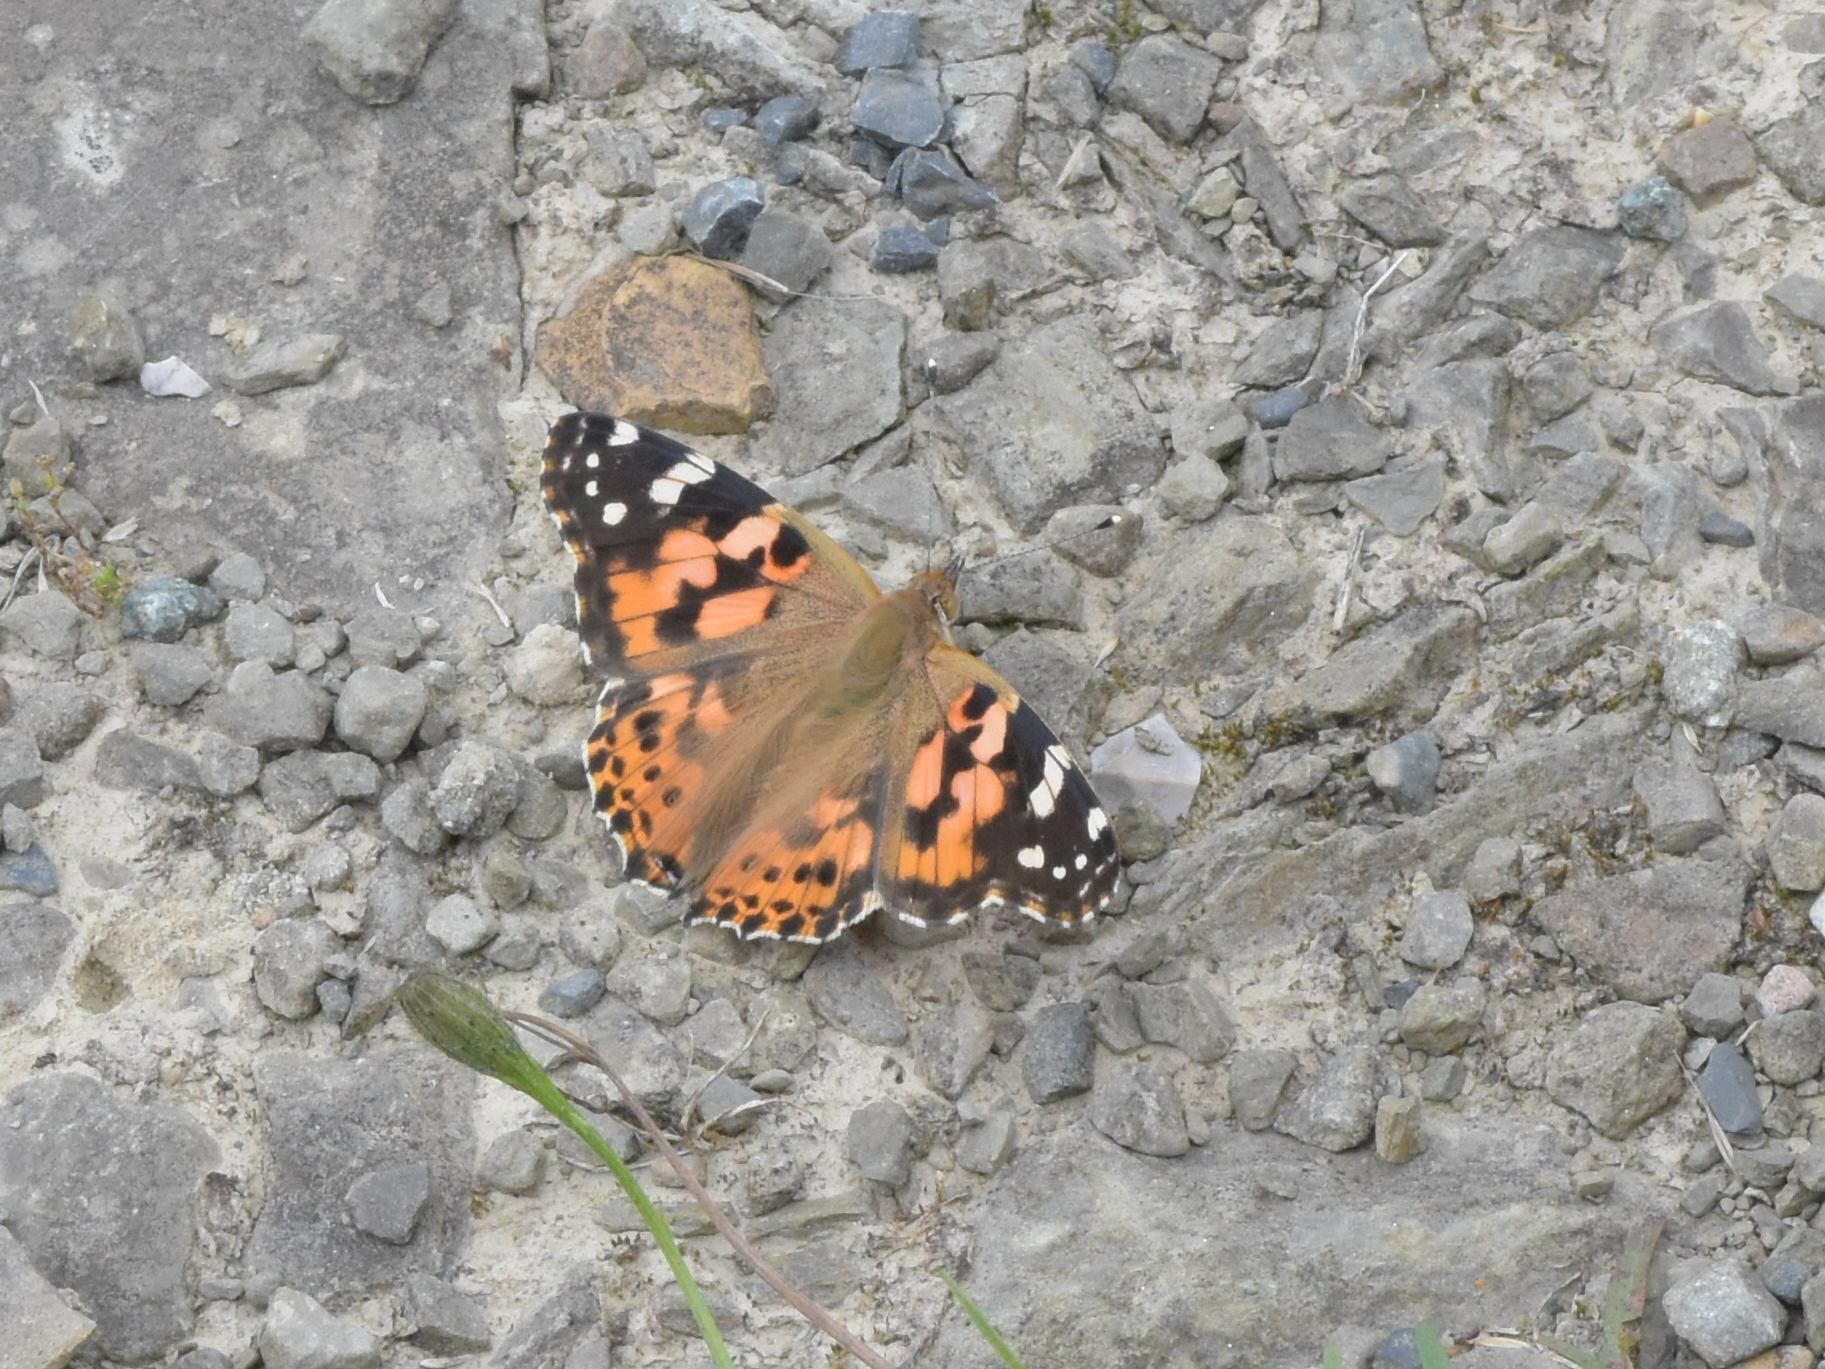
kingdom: Animalia
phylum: Arthropoda
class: Insecta
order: Lepidoptera
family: Nymphalidae
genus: Vanessa
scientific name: Vanessa cardui
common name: Painted lady
